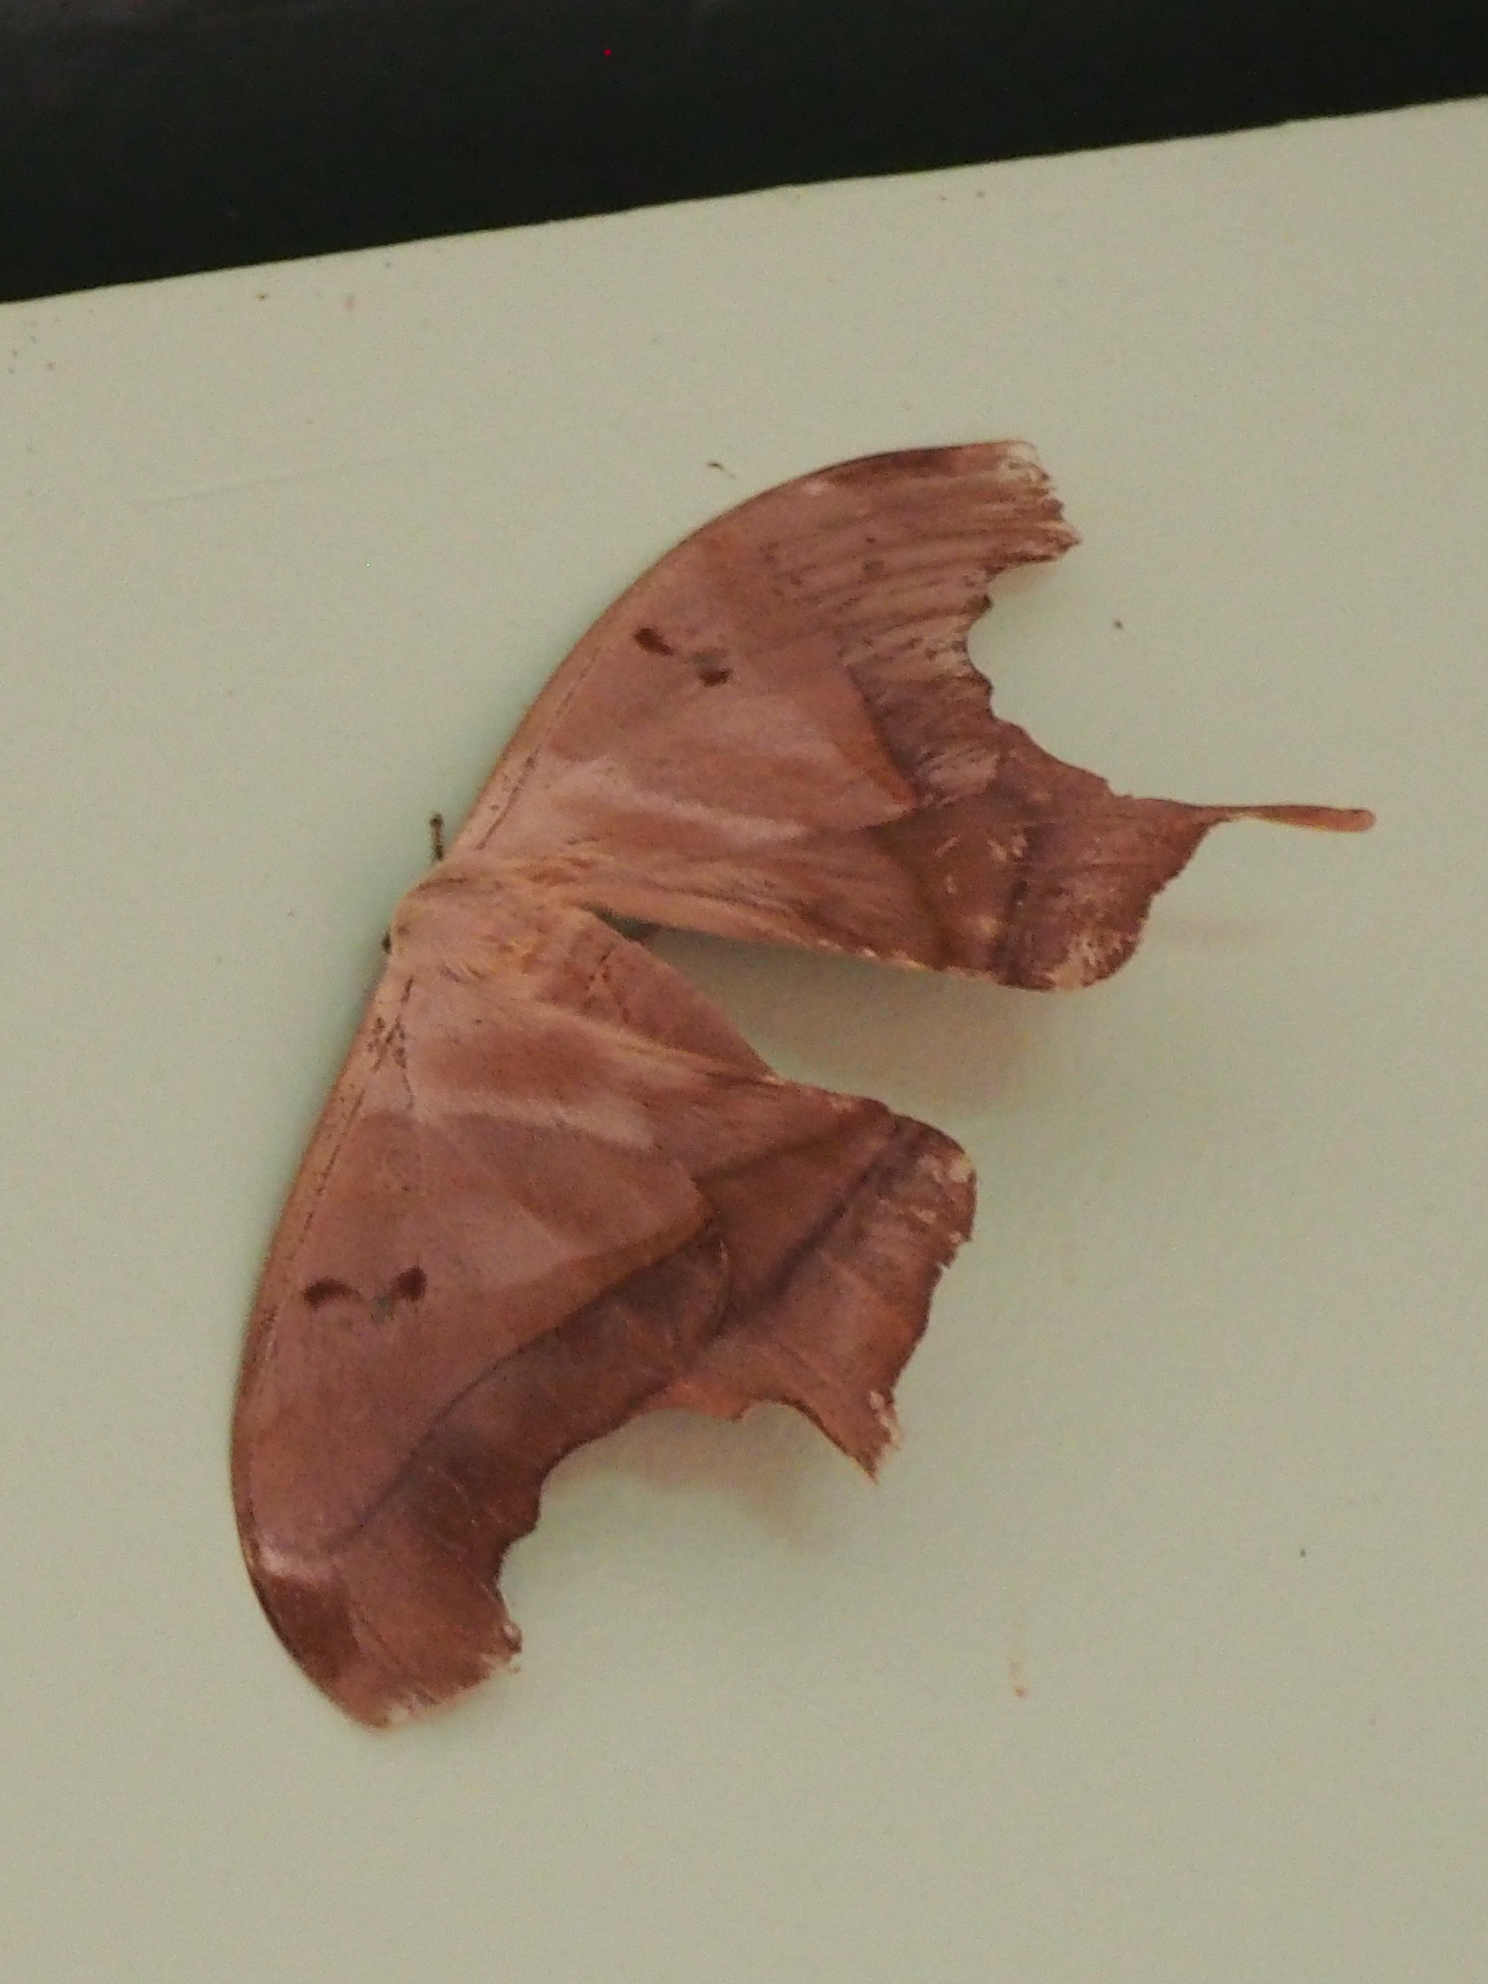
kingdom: Animalia
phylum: Arthropoda
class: Insecta
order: Lepidoptera
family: Saturniidae
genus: Titaea
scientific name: Titaea tamerlan
